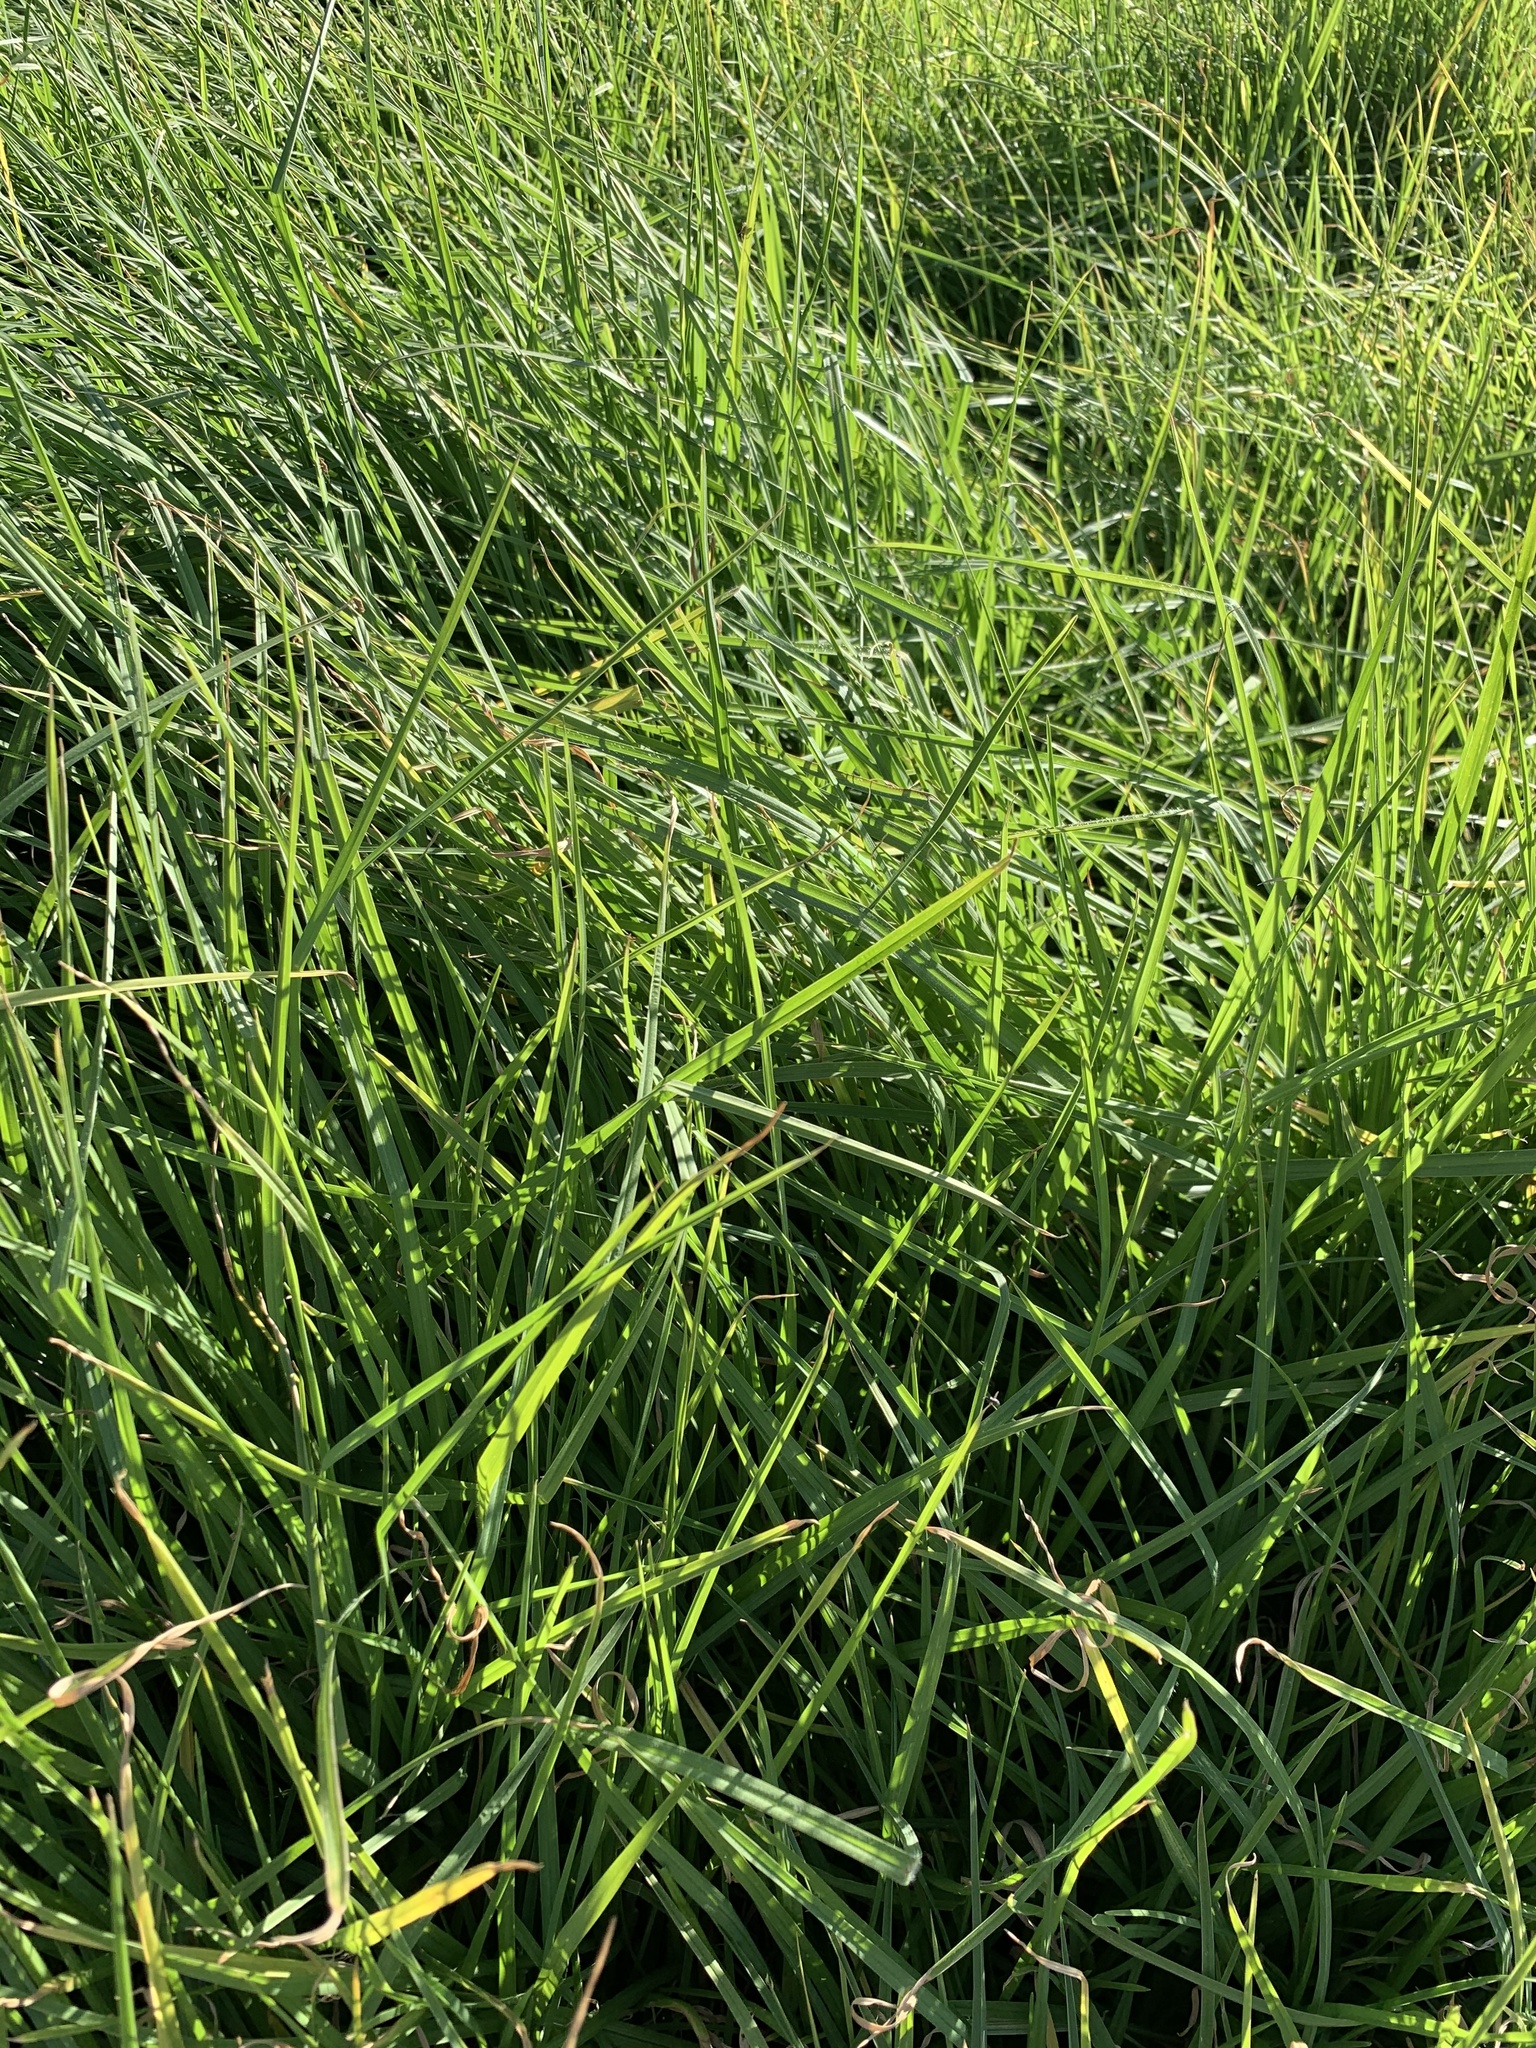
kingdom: Plantae
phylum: Tracheophyta
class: Liliopsida
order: Poales
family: Poaceae
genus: Cenchrus
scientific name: Cenchrus clandestinus
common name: Kikuyugrass
